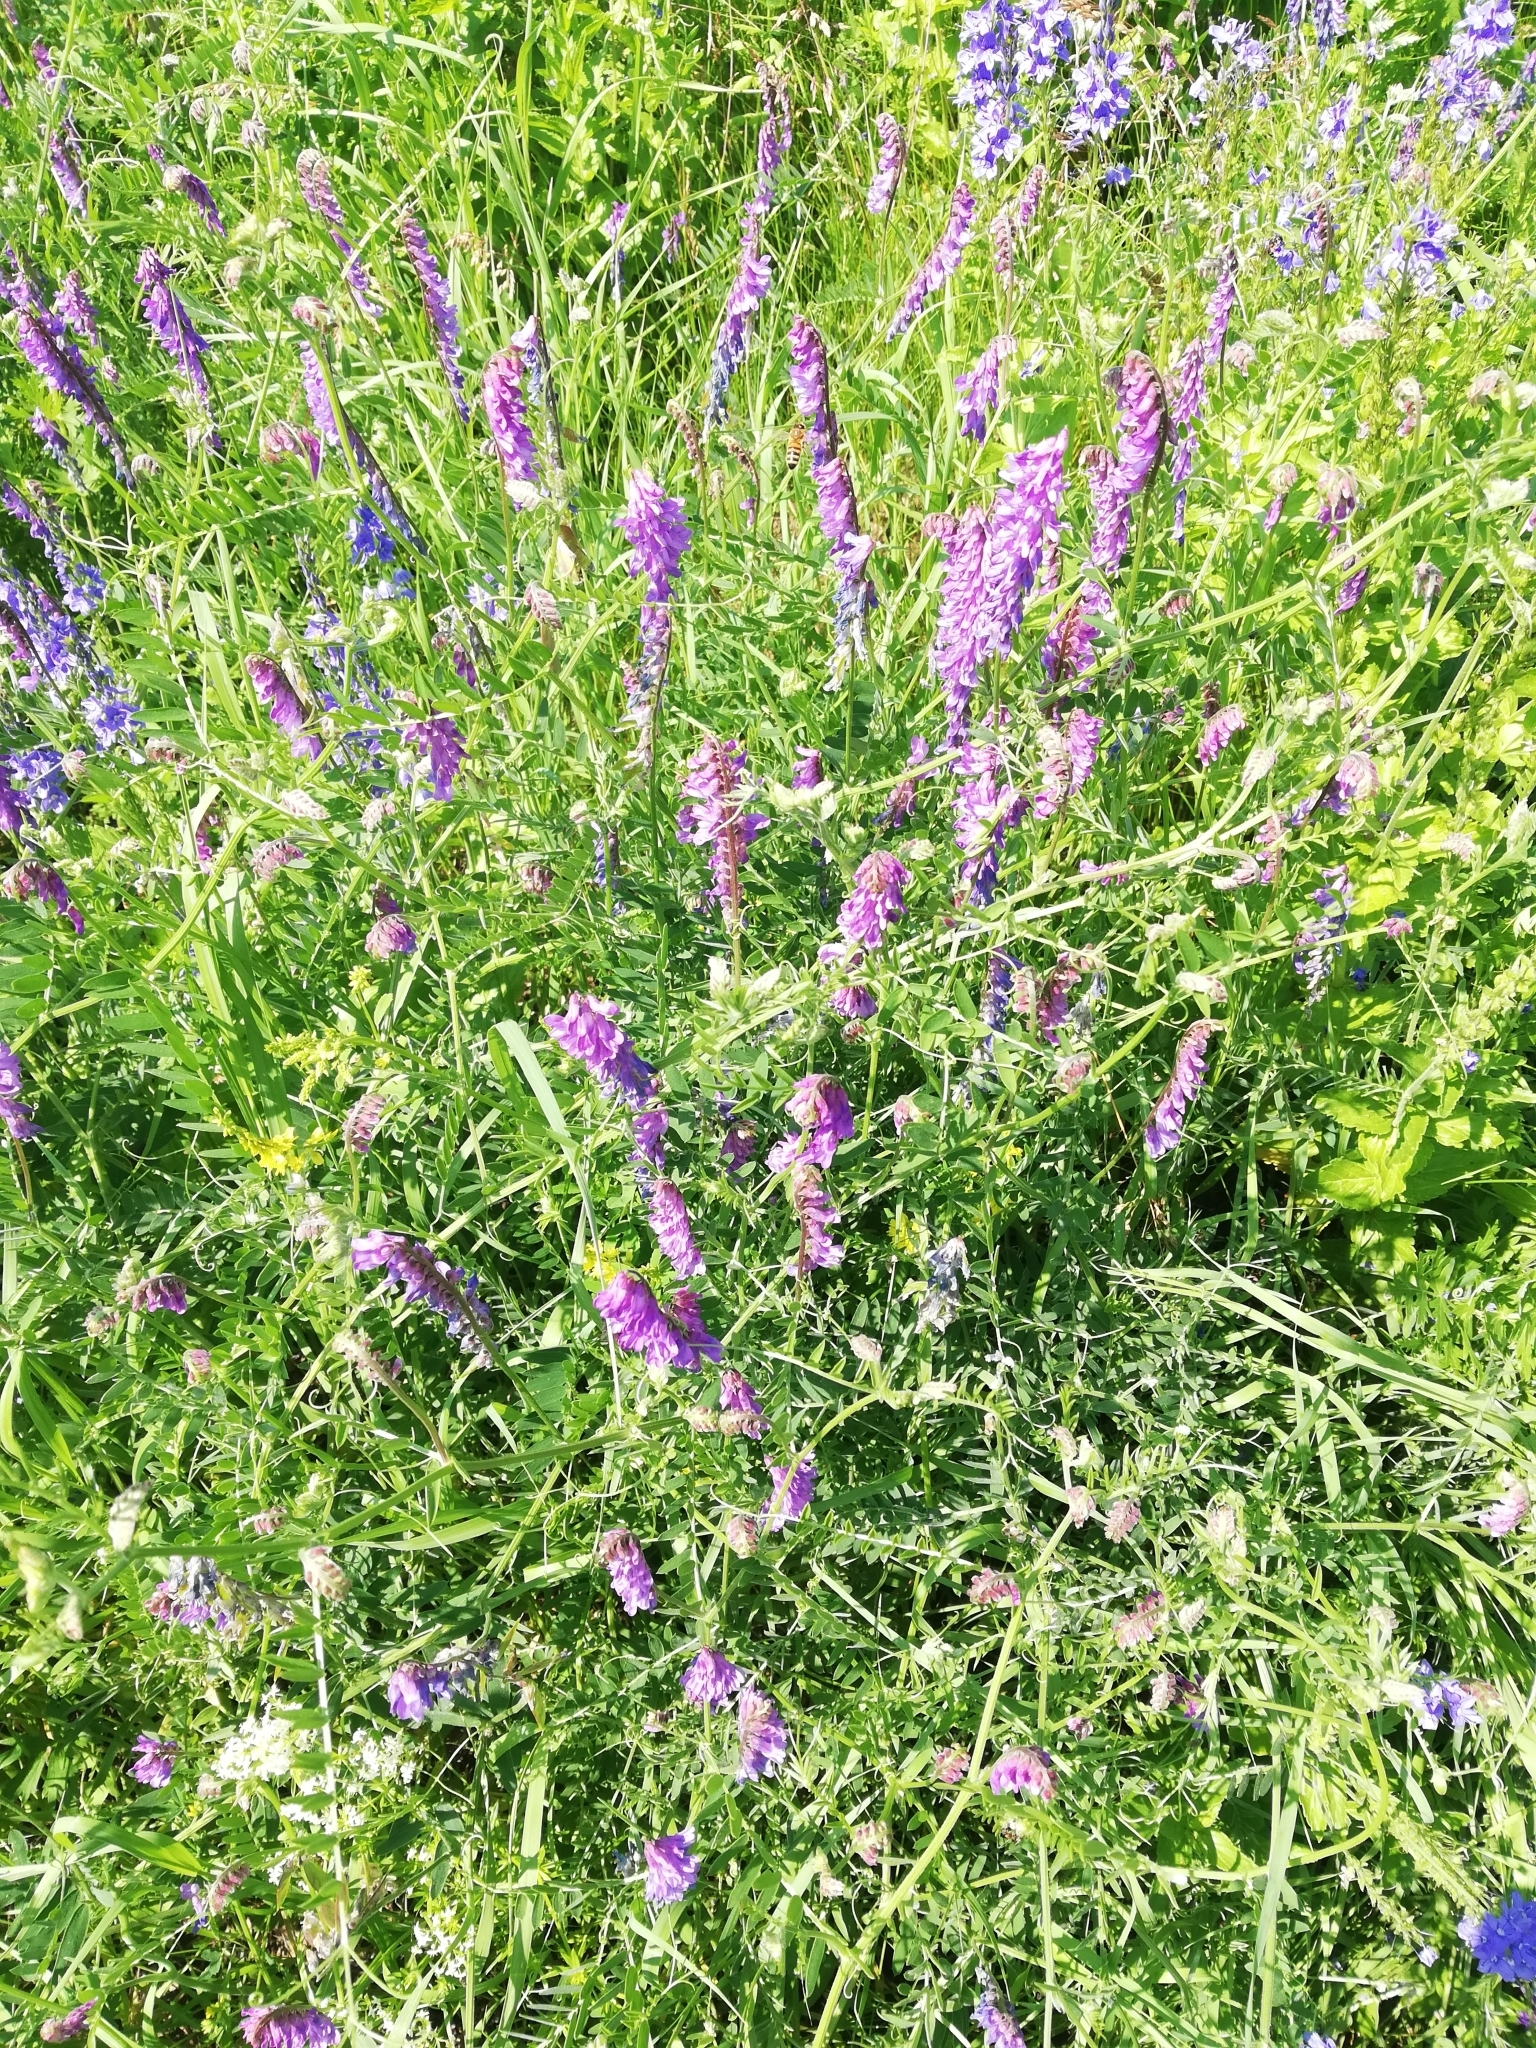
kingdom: Plantae
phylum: Tracheophyta
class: Magnoliopsida
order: Fabales
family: Fabaceae
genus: Vicia
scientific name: Vicia tenuifolia
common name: Fine-leaved vetch
